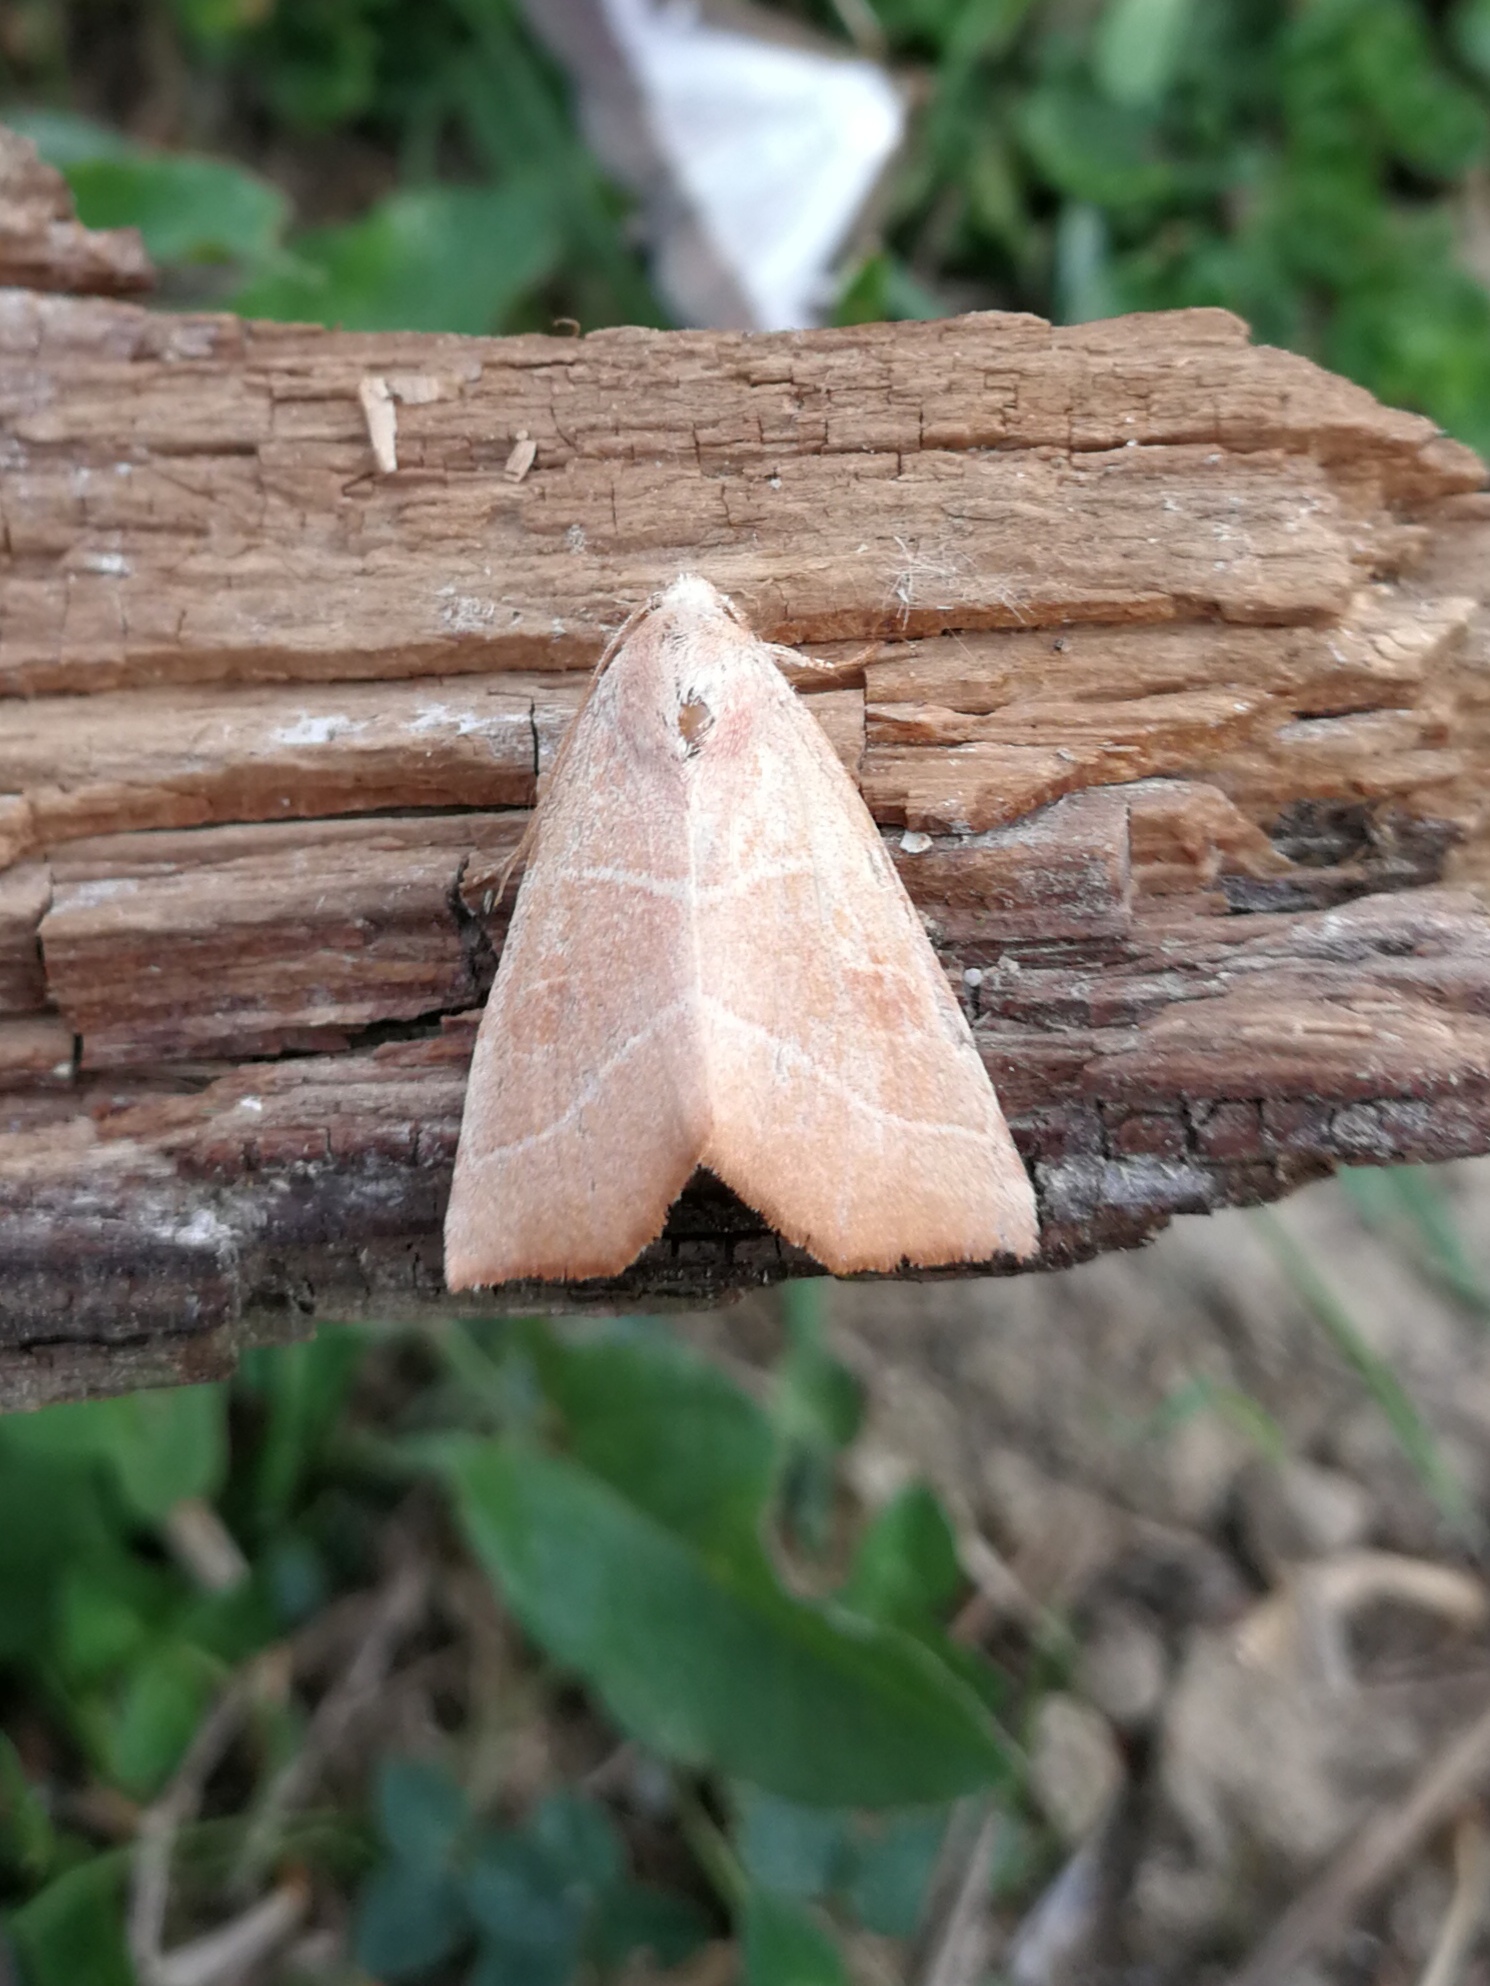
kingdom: Animalia
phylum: Arthropoda
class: Insecta
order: Lepidoptera
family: Noctuidae
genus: Atethmia
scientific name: Atethmia algirica
